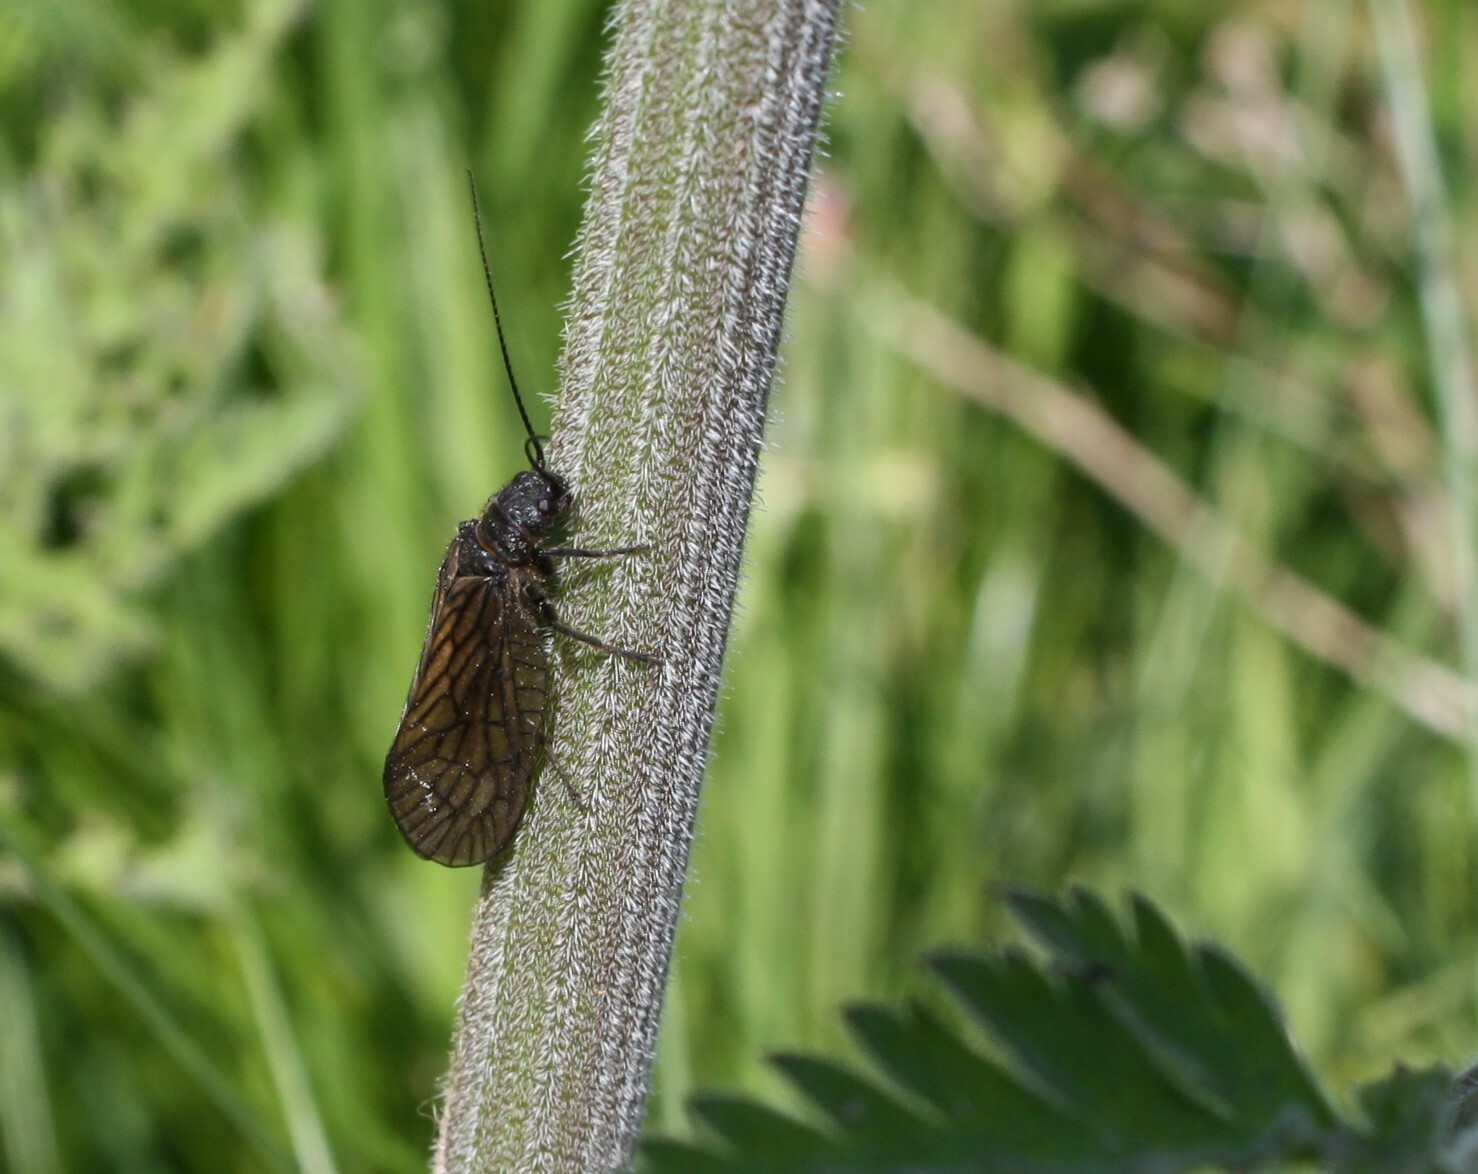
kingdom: Animalia
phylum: Arthropoda
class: Insecta
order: Megaloptera
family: Sialidae
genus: Sialis
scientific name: Sialis
